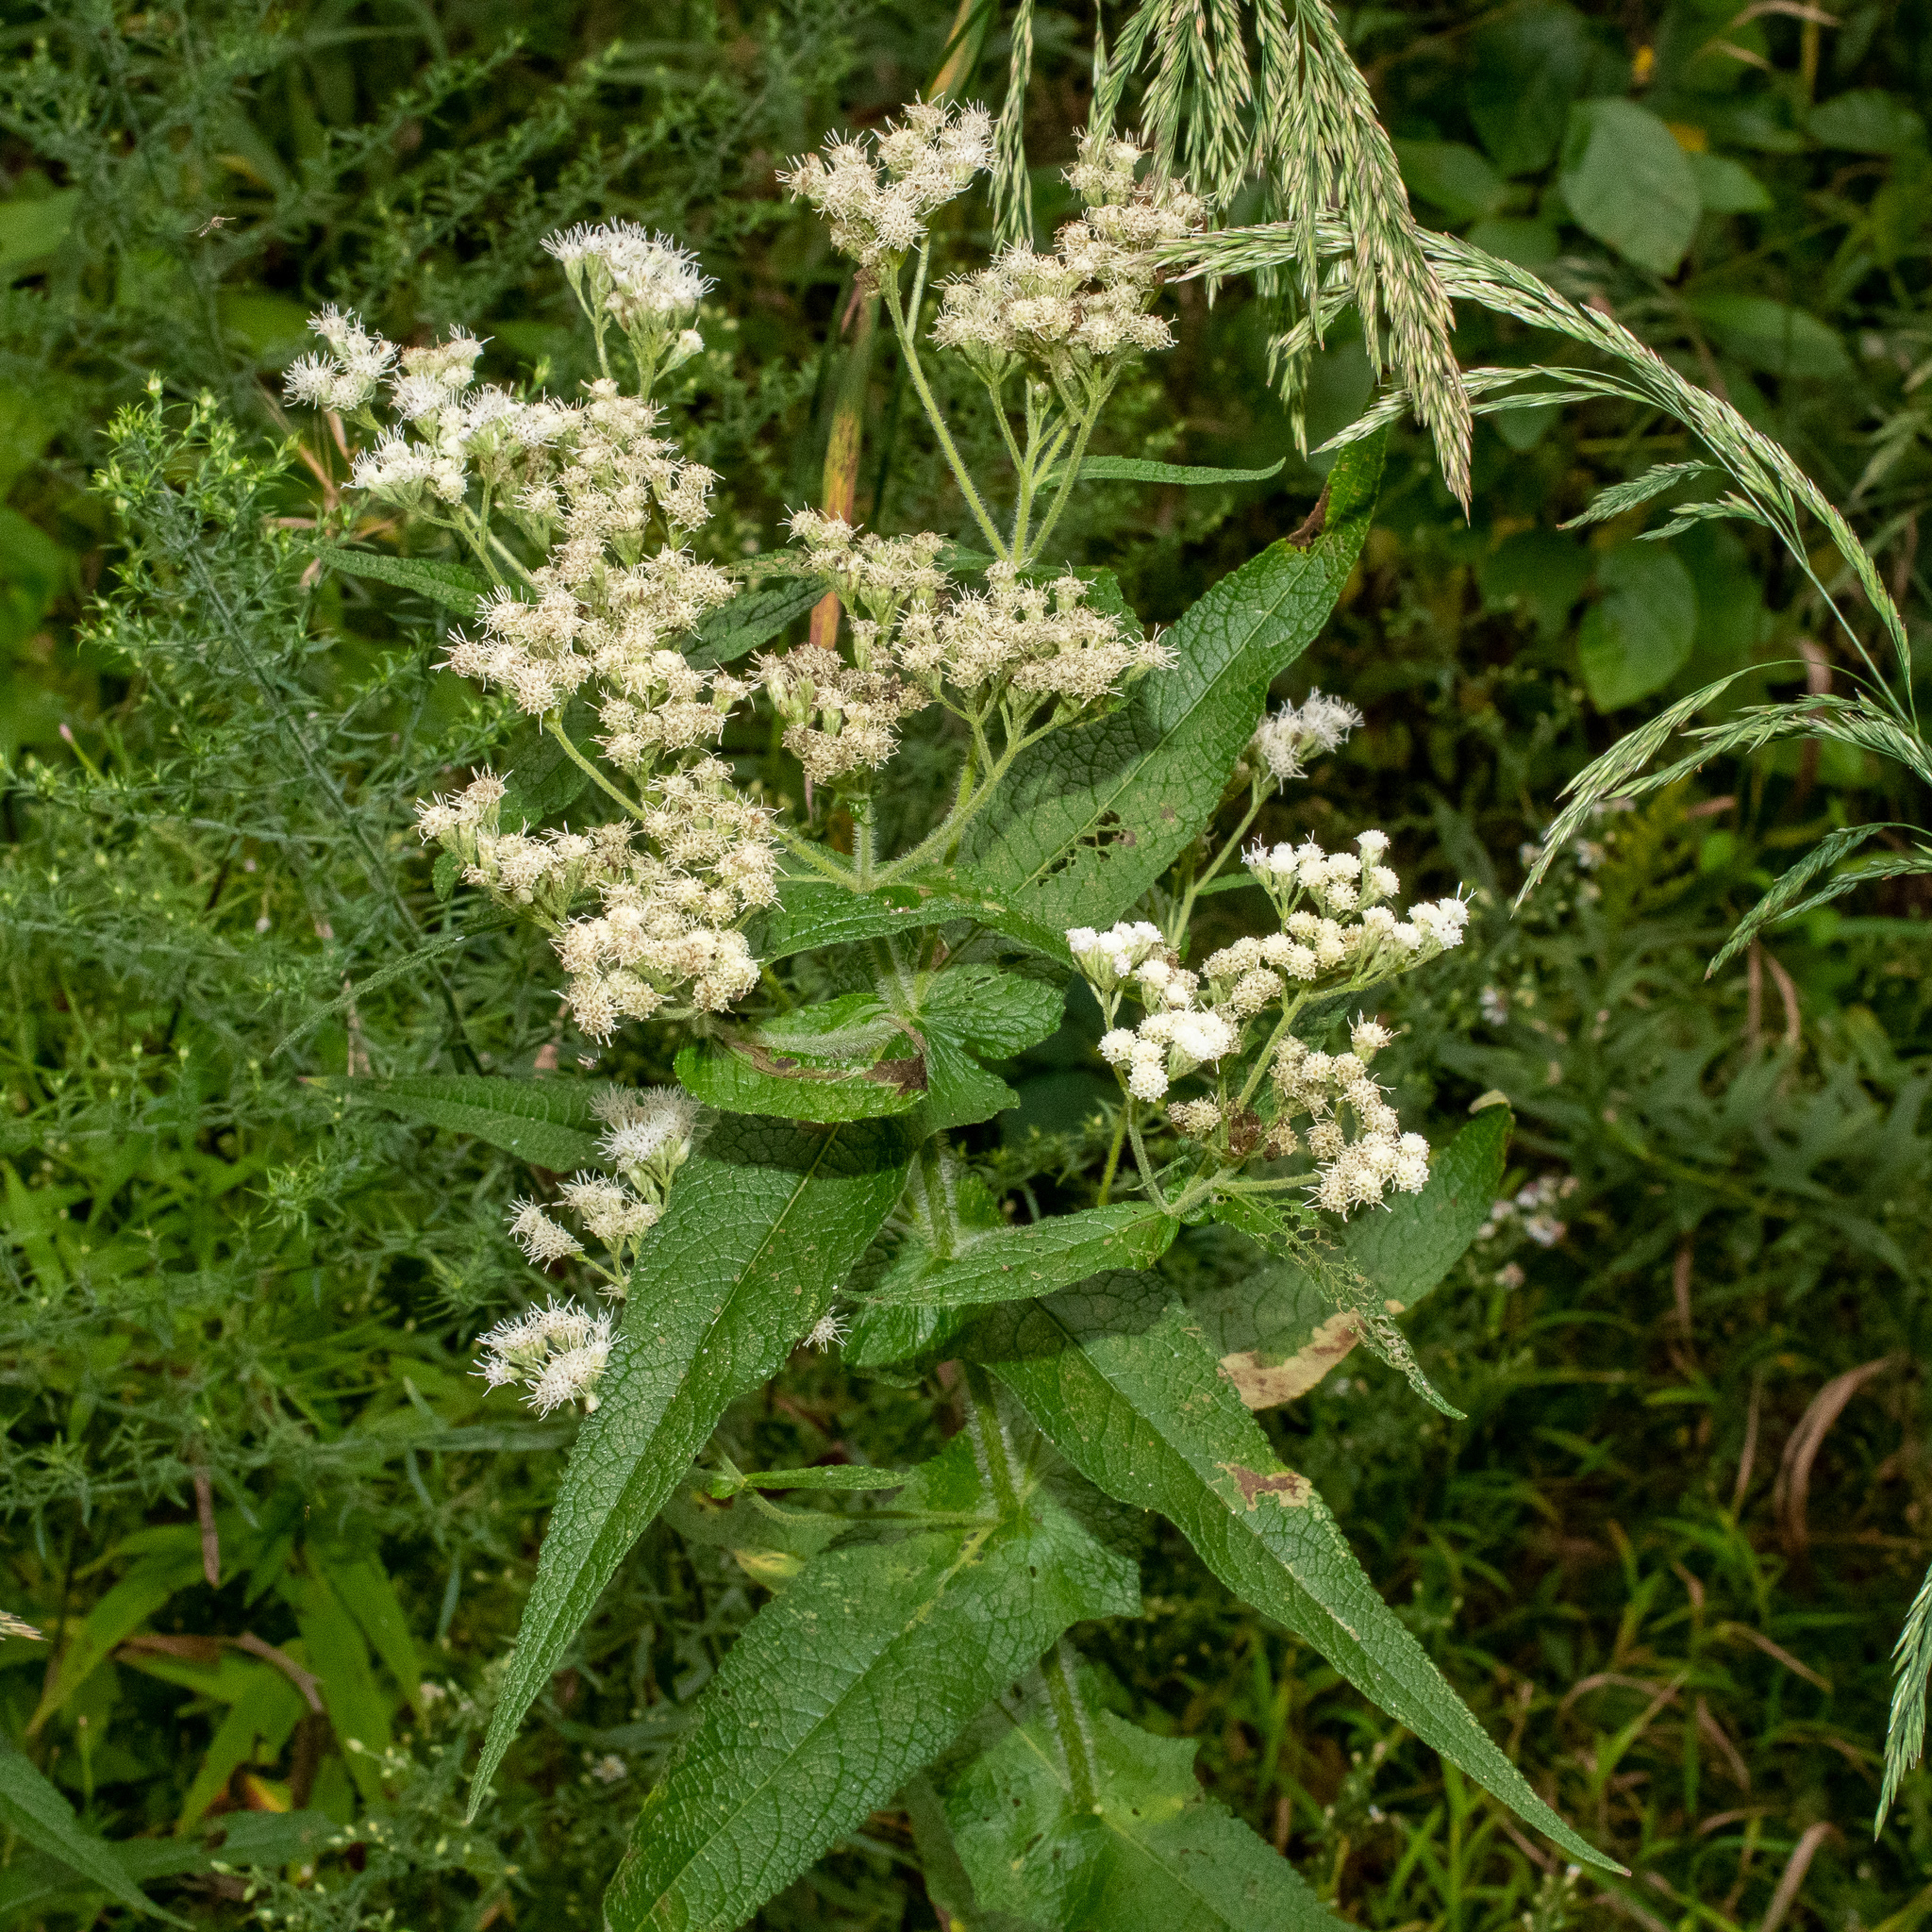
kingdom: Plantae
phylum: Tracheophyta
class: Magnoliopsida
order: Asterales
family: Asteraceae
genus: Eupatorium
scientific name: Eupatorium perfoliatum
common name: Boneset
